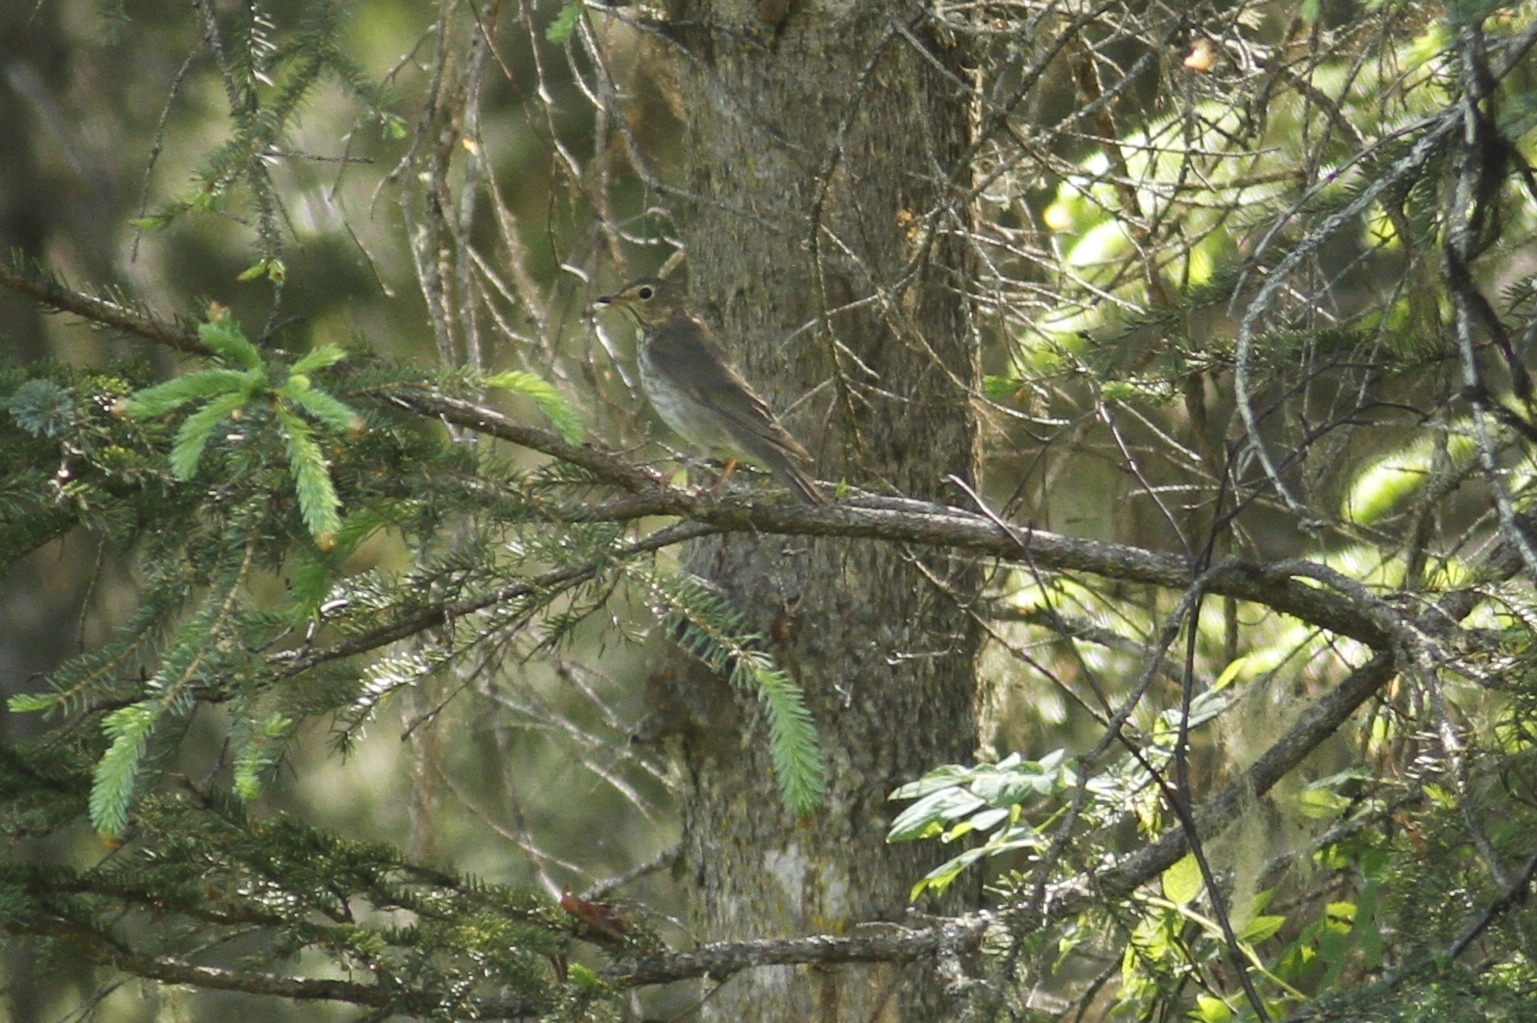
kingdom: Animalia
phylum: Chordata
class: Aves
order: Passeriformes
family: Turdidae
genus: Catharus
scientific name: Catharus ustulatus
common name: Swainson's thrush
